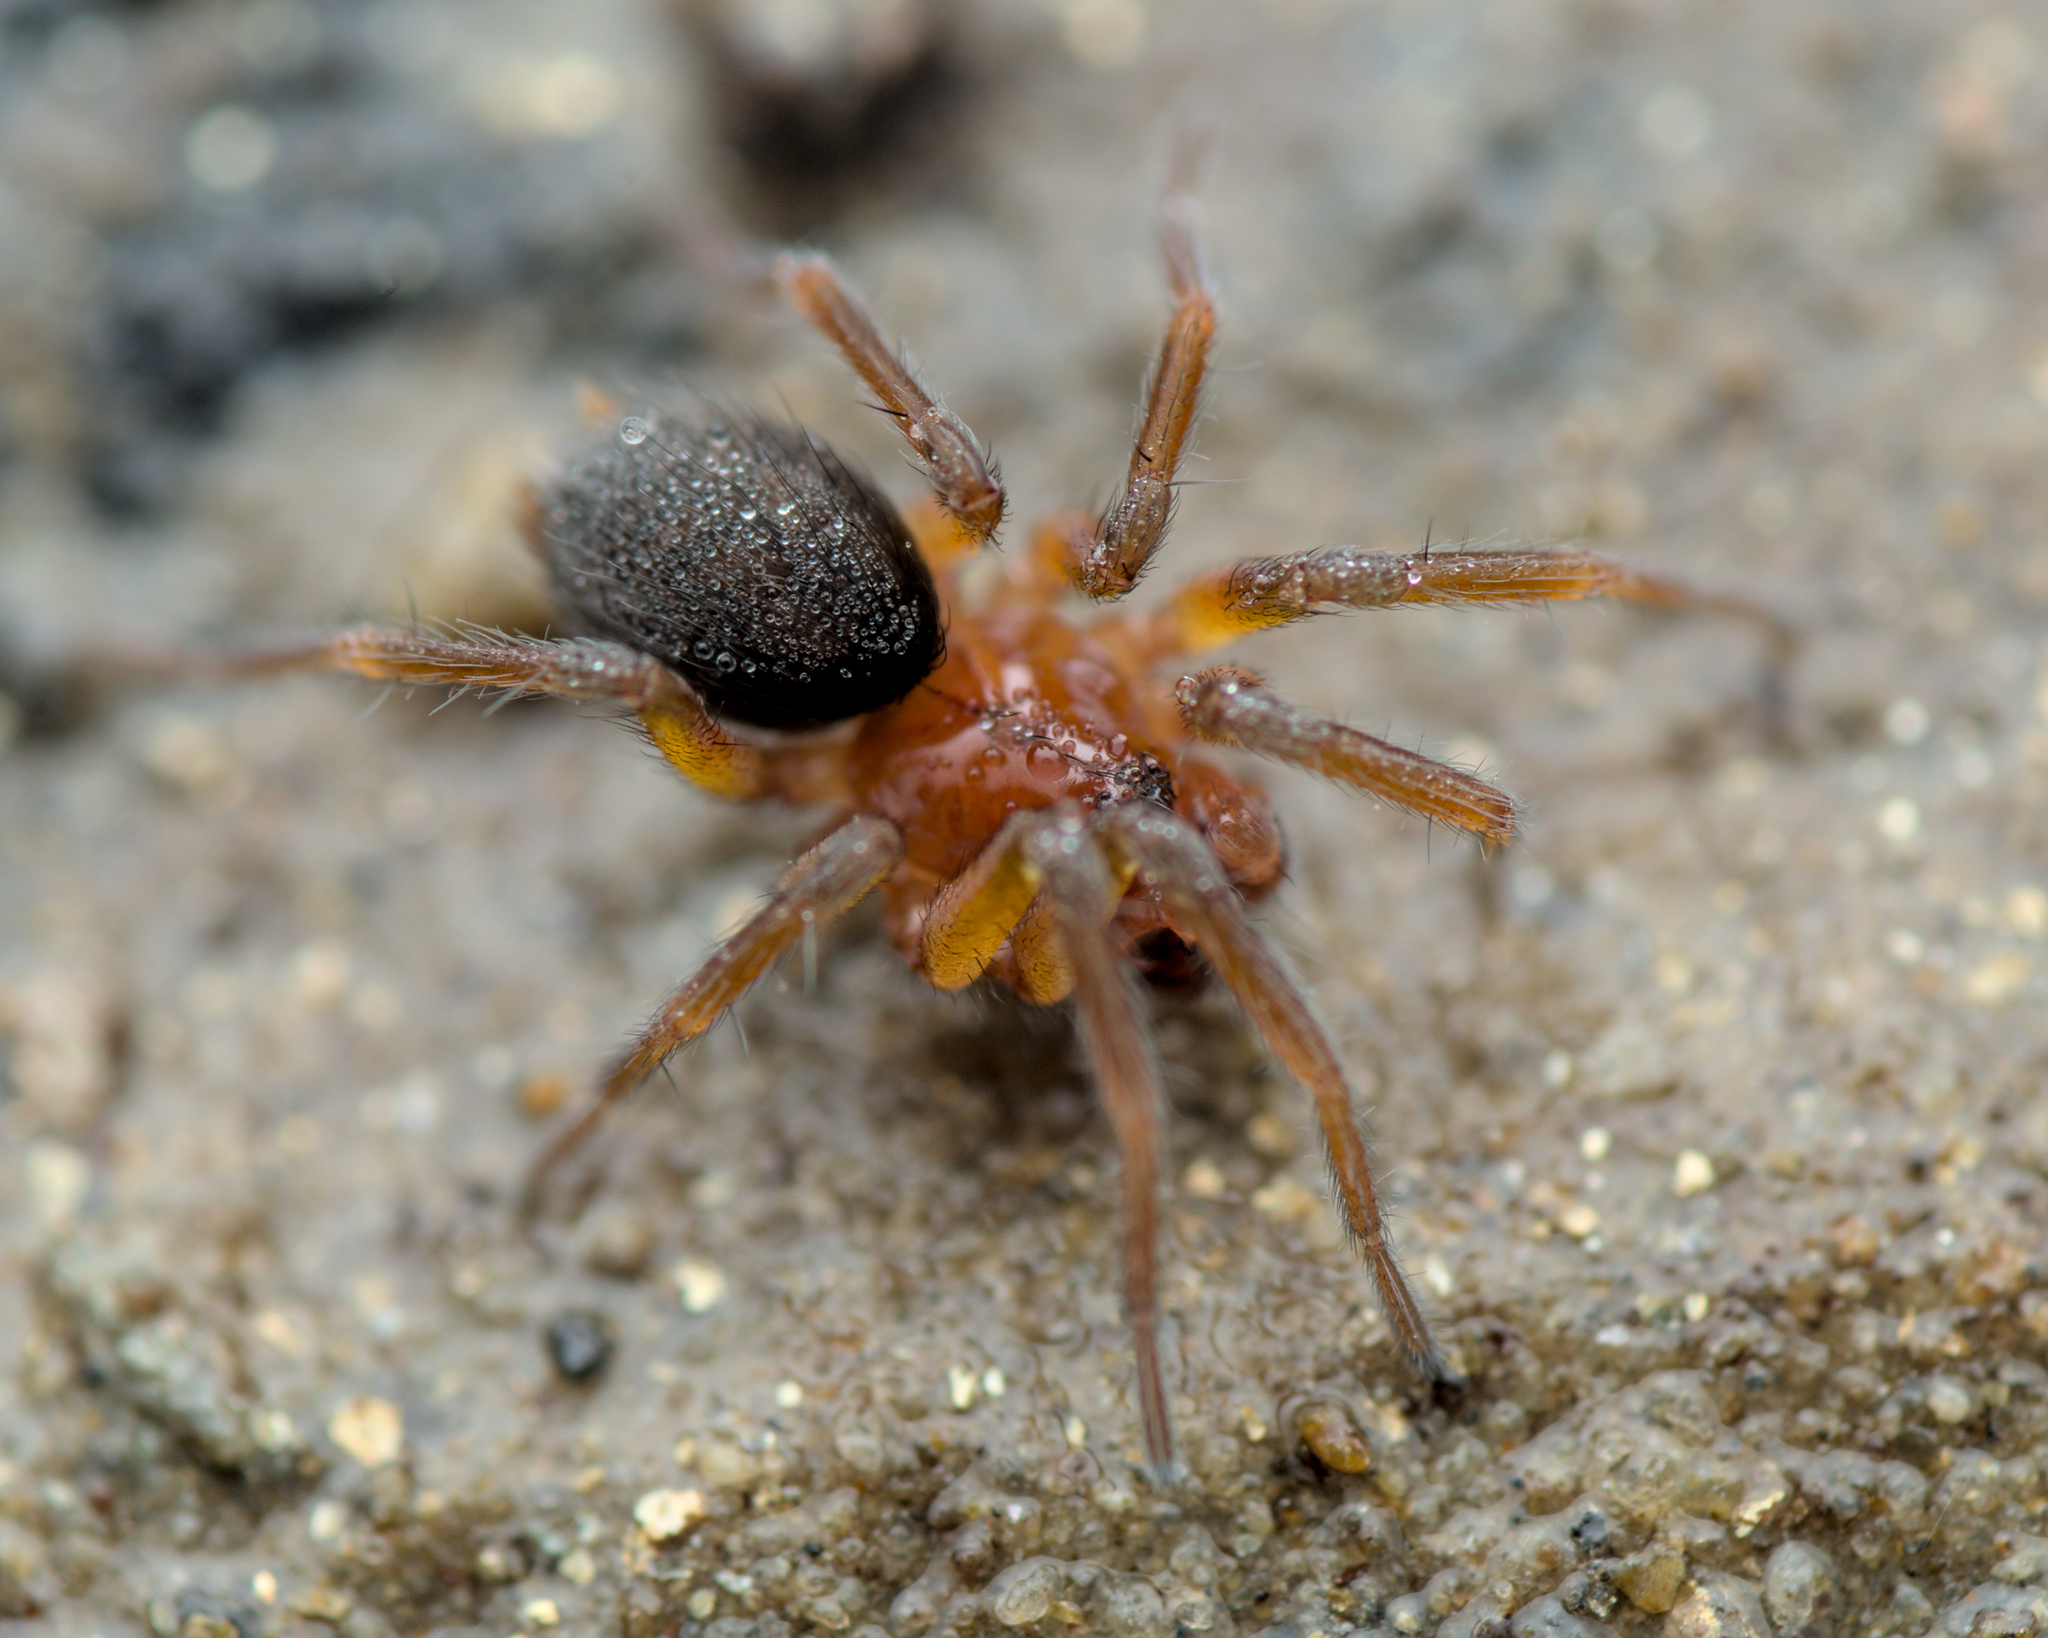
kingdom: Animalia
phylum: Arthropoda
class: Arachnida
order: Araneae
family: Hahniidae
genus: Antistea
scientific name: Antistea elegans
